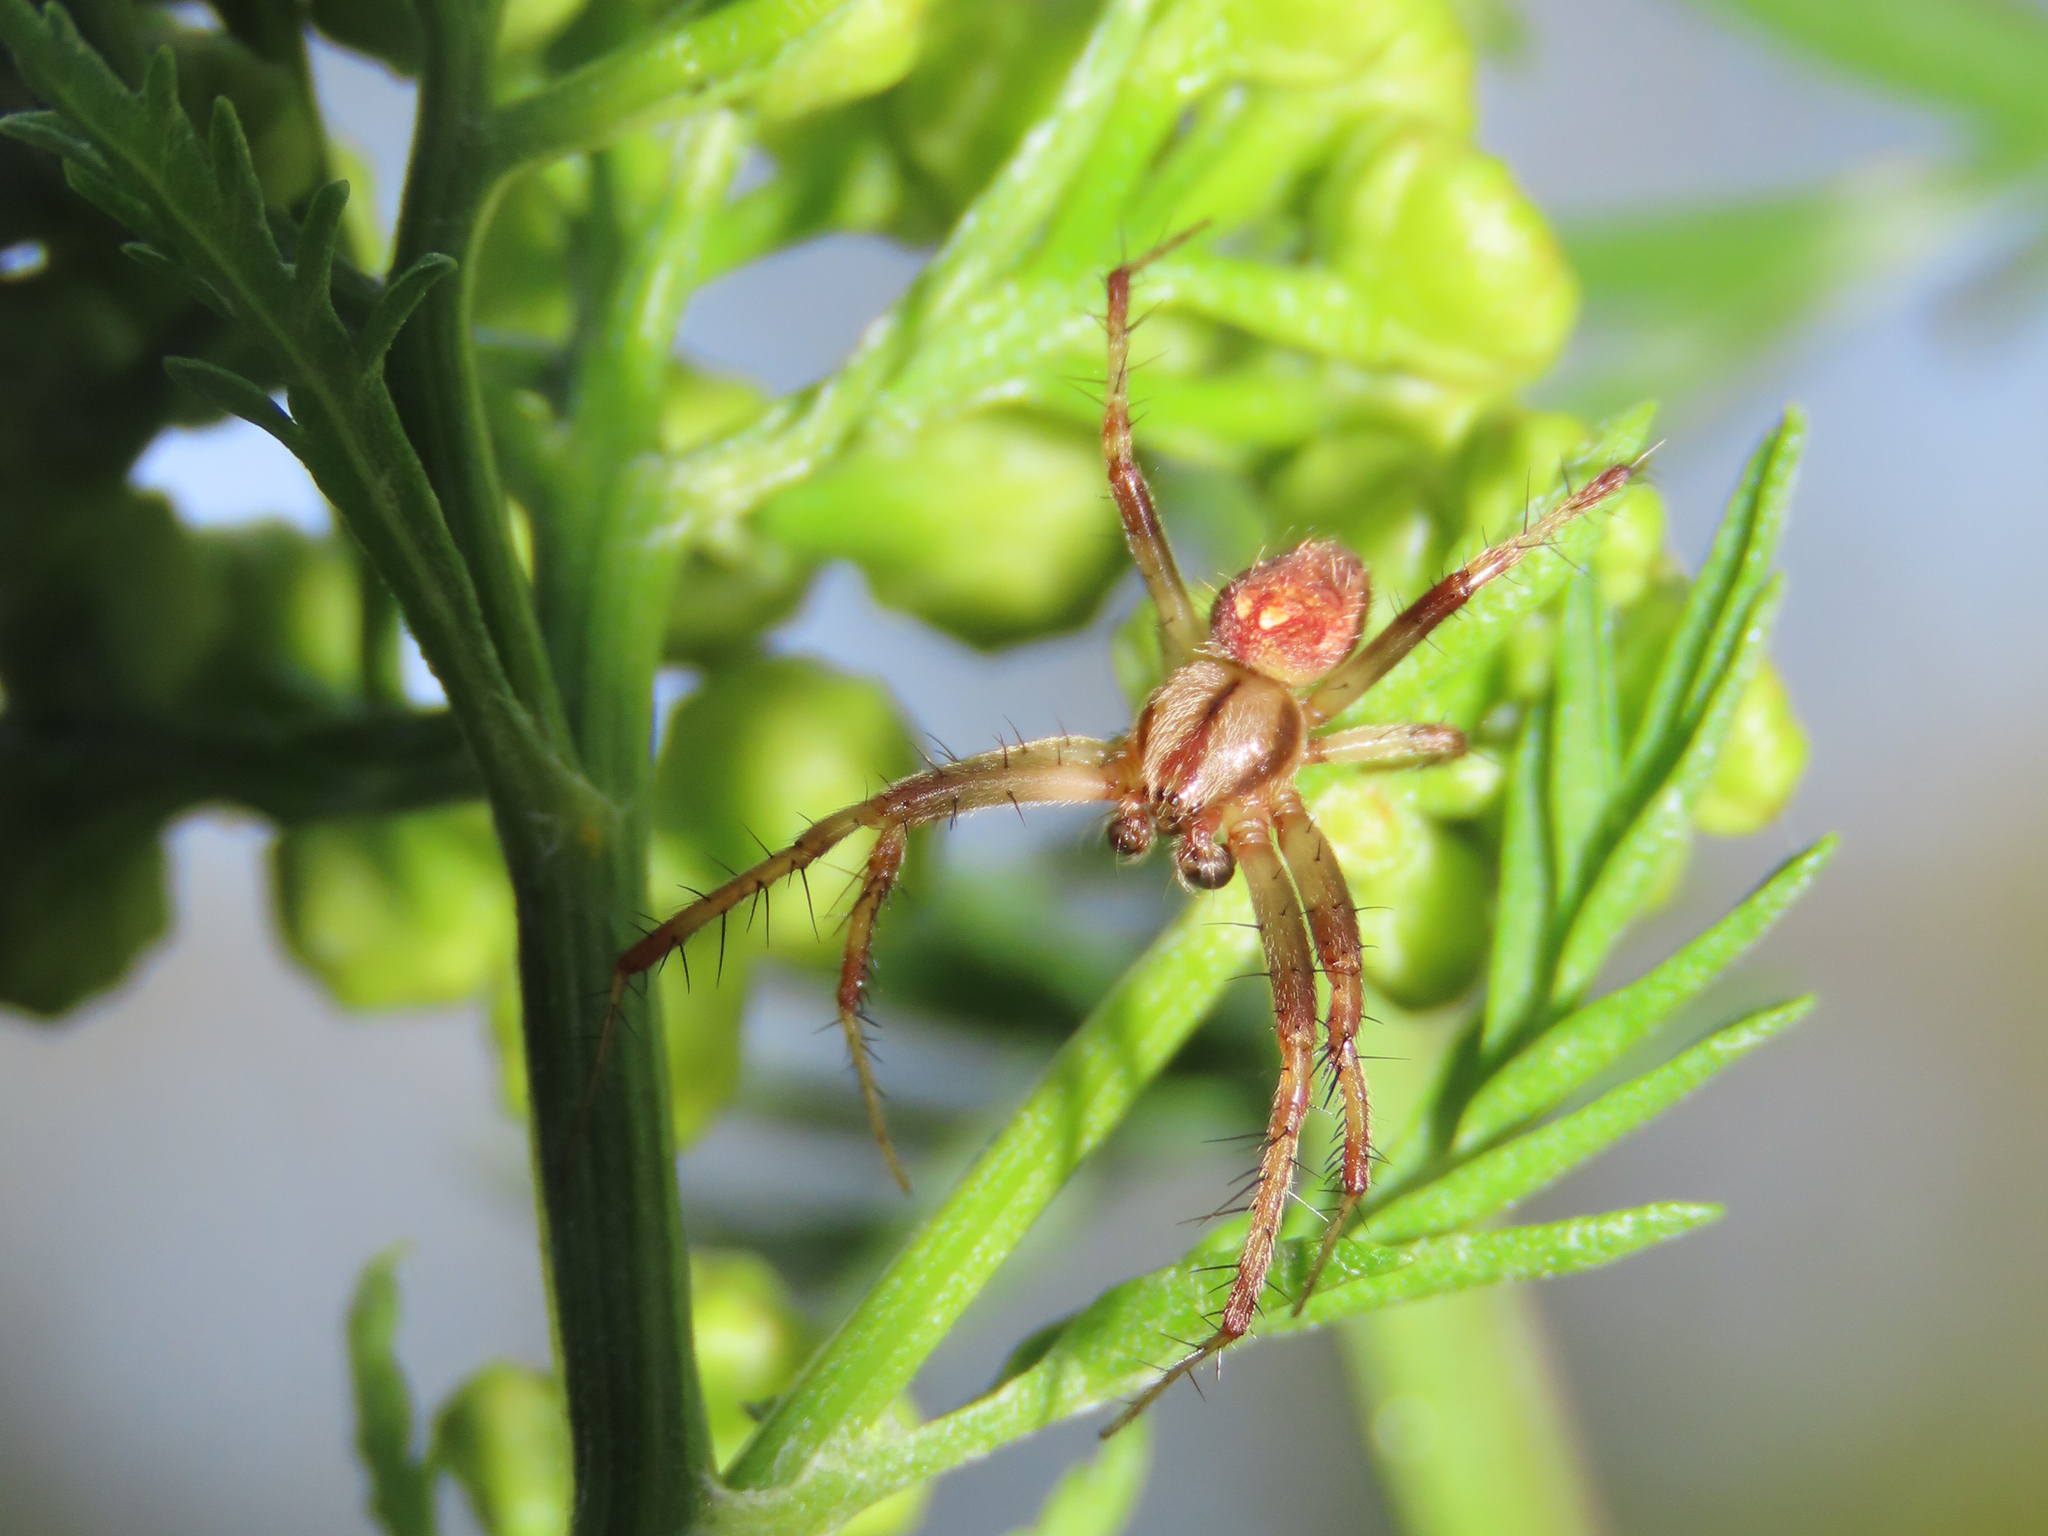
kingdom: Animalia
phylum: Arthropoda
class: Arachnida
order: Araneae
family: Araneidae
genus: Neoscona
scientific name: Neoscona arabesca
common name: Orb weavers
